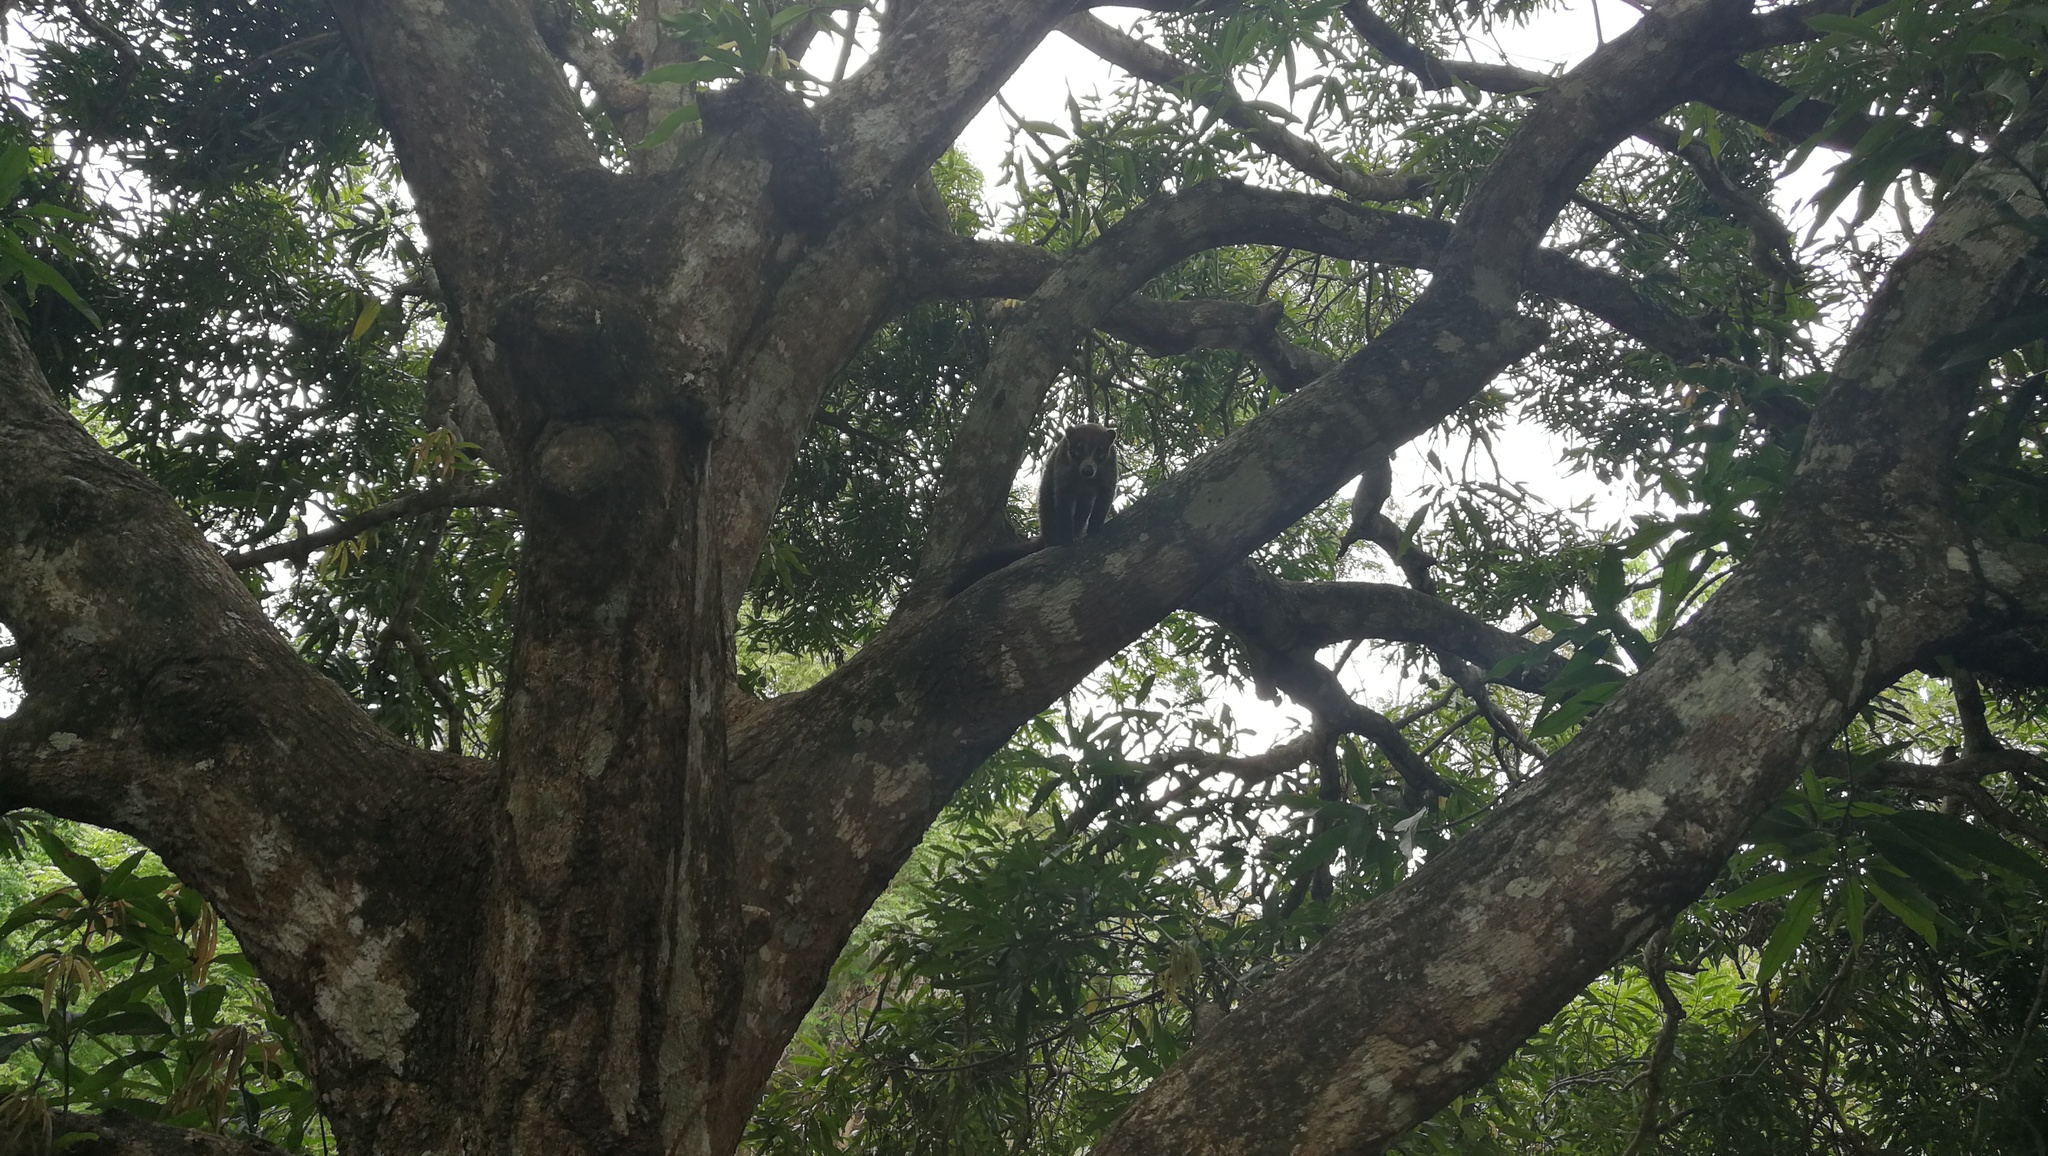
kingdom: Animalia
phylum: Chordata
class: Mammalia
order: Carnivora
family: Procyonidae
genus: Nasua
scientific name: Nasua narica
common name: White-nosed coati
